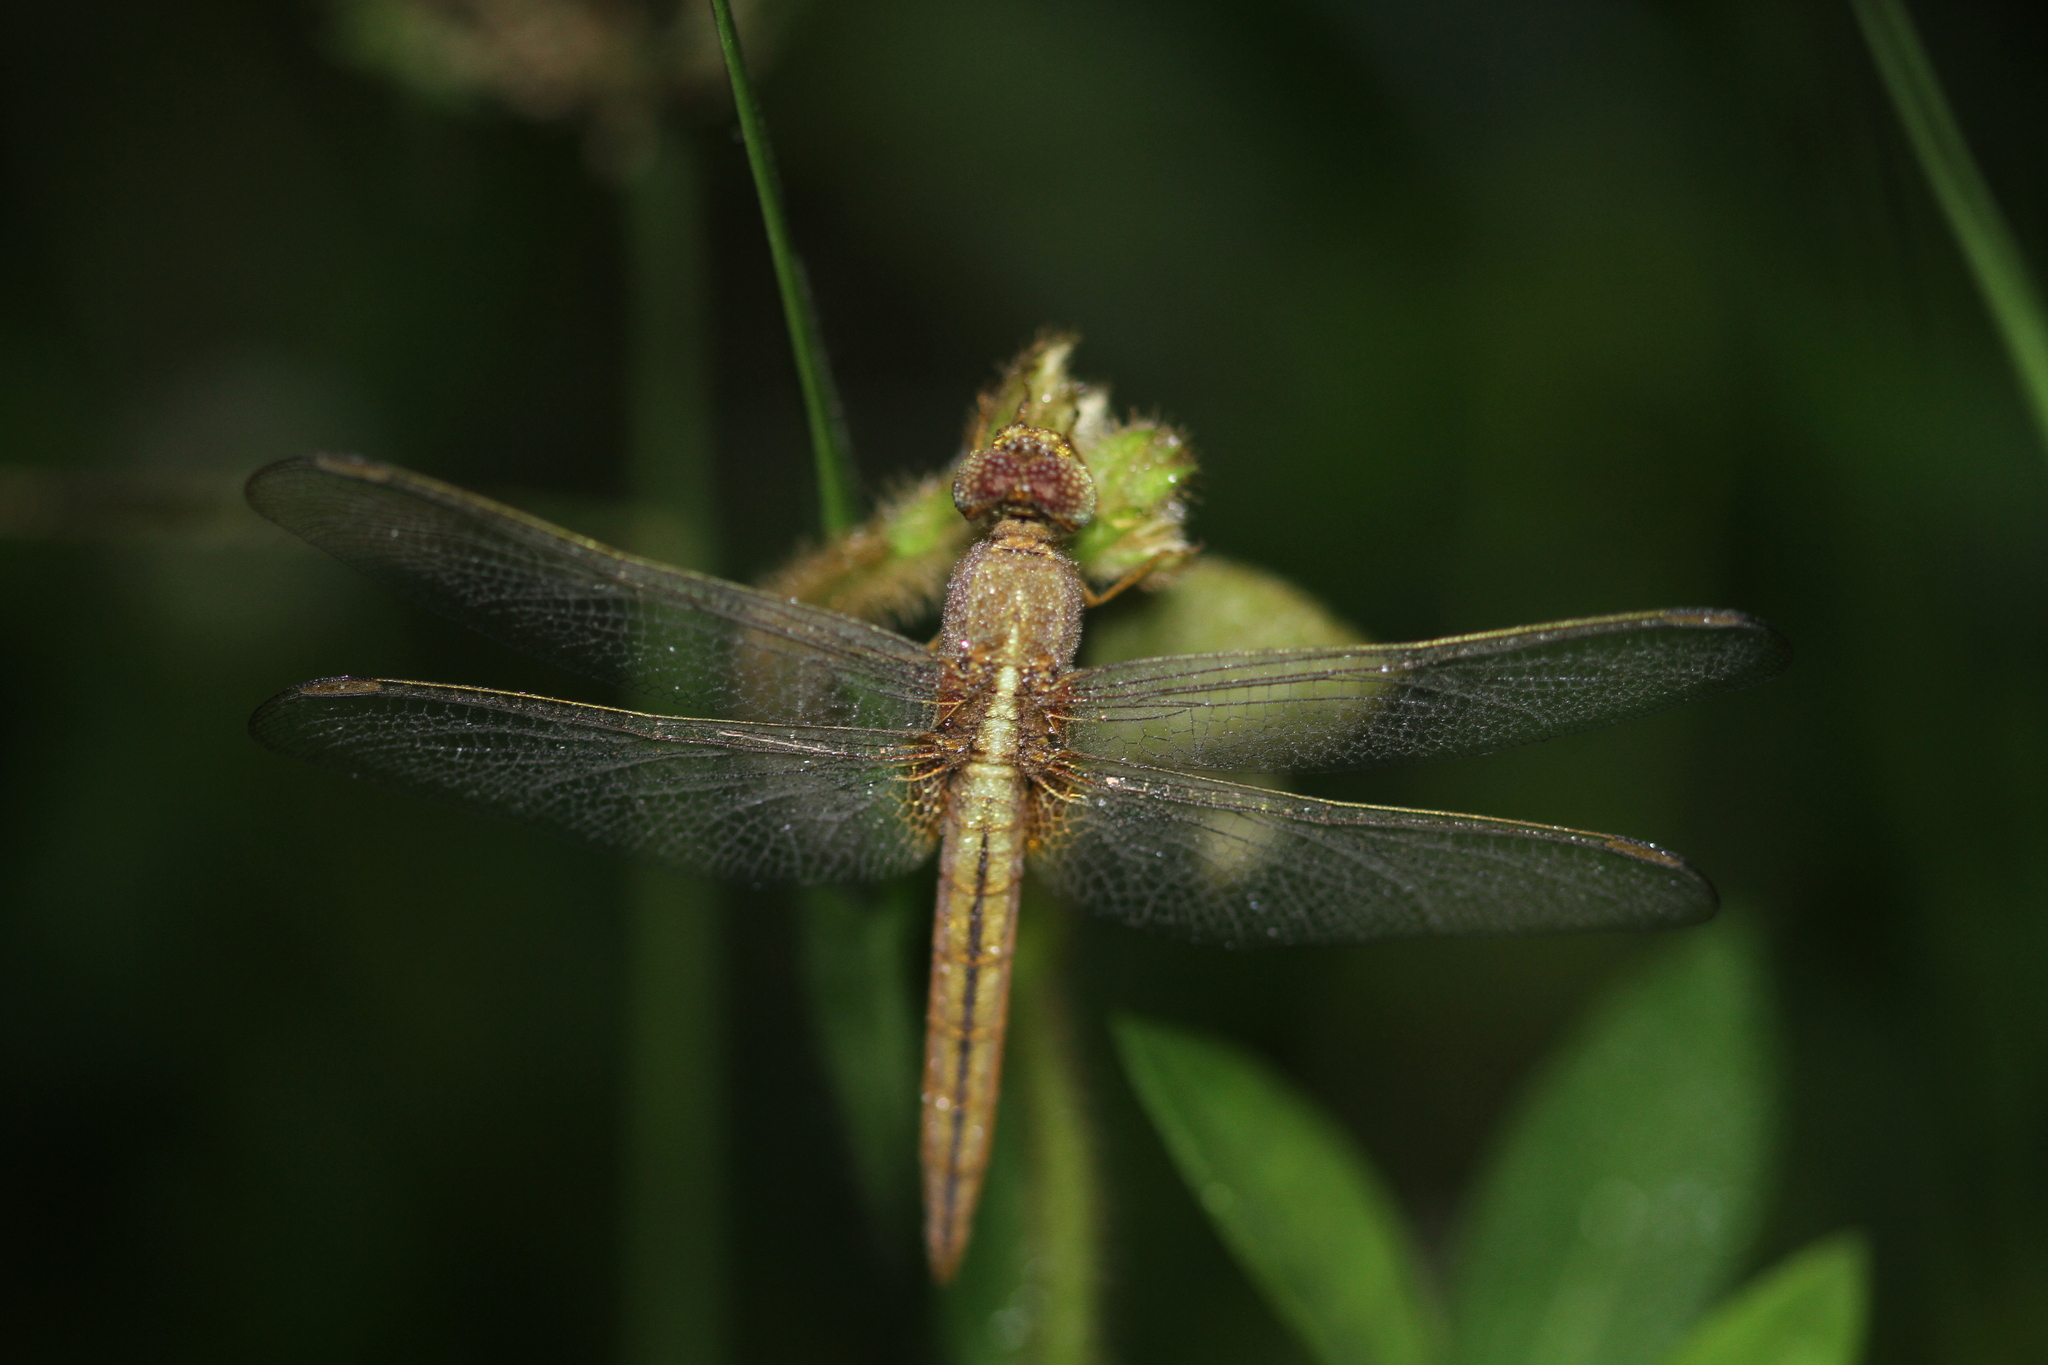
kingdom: Animalia
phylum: Arthropoda
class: Insecta
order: Odonata
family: Libellulidae
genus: Crocothemis
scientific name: Crocothemis servilia
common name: Scarlet skimmer
